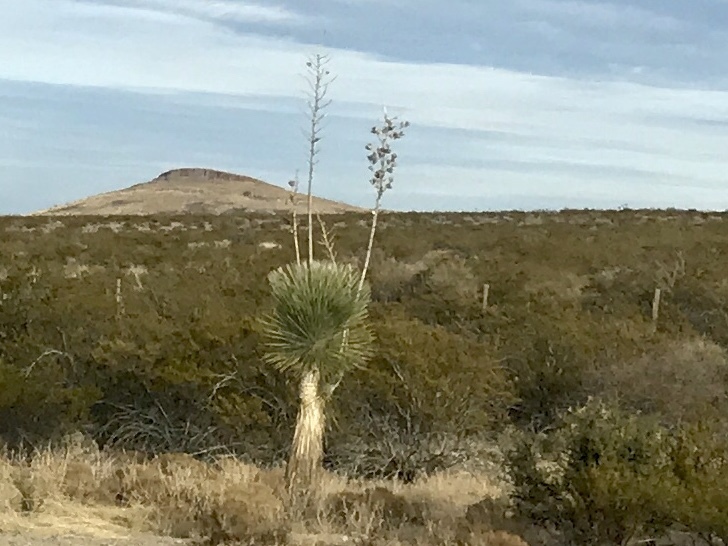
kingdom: Plantae
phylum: Tracheophyta
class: Liliopsida
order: Asparagales
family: Asparagaceae
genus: Yucca
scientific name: Yucca elata
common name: Palmella
